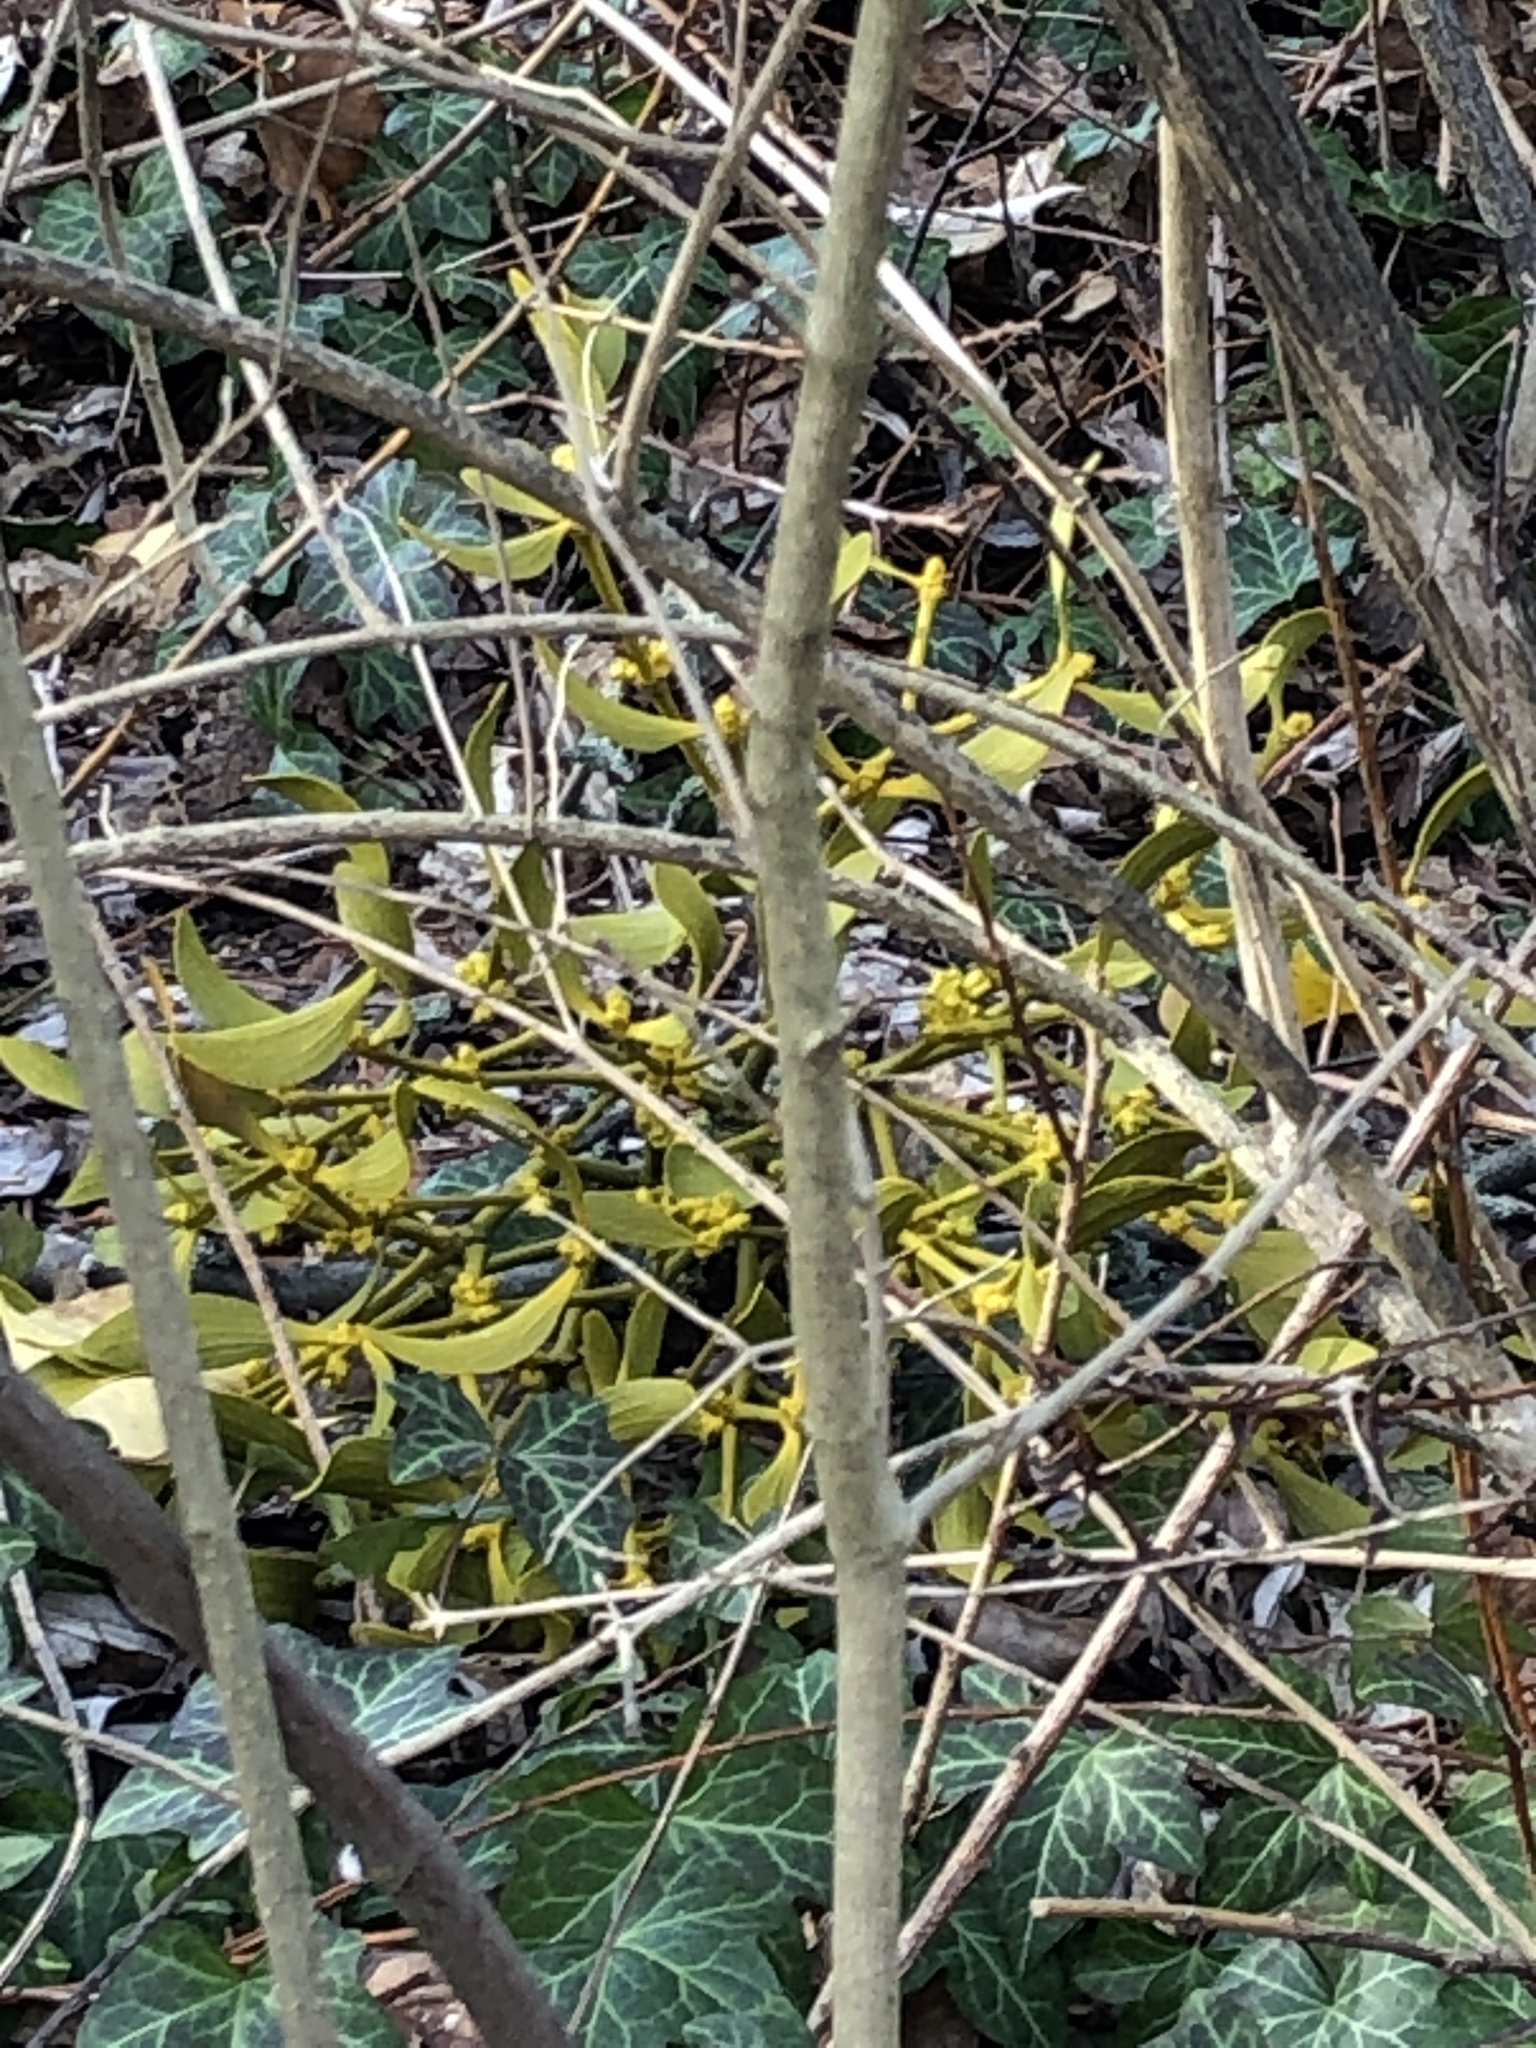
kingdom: Plantae
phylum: Tracheophyta
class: Magnoliopsida
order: Santalales
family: Viscaceae
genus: Viscum
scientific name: Viscum album
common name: Mistletoe
